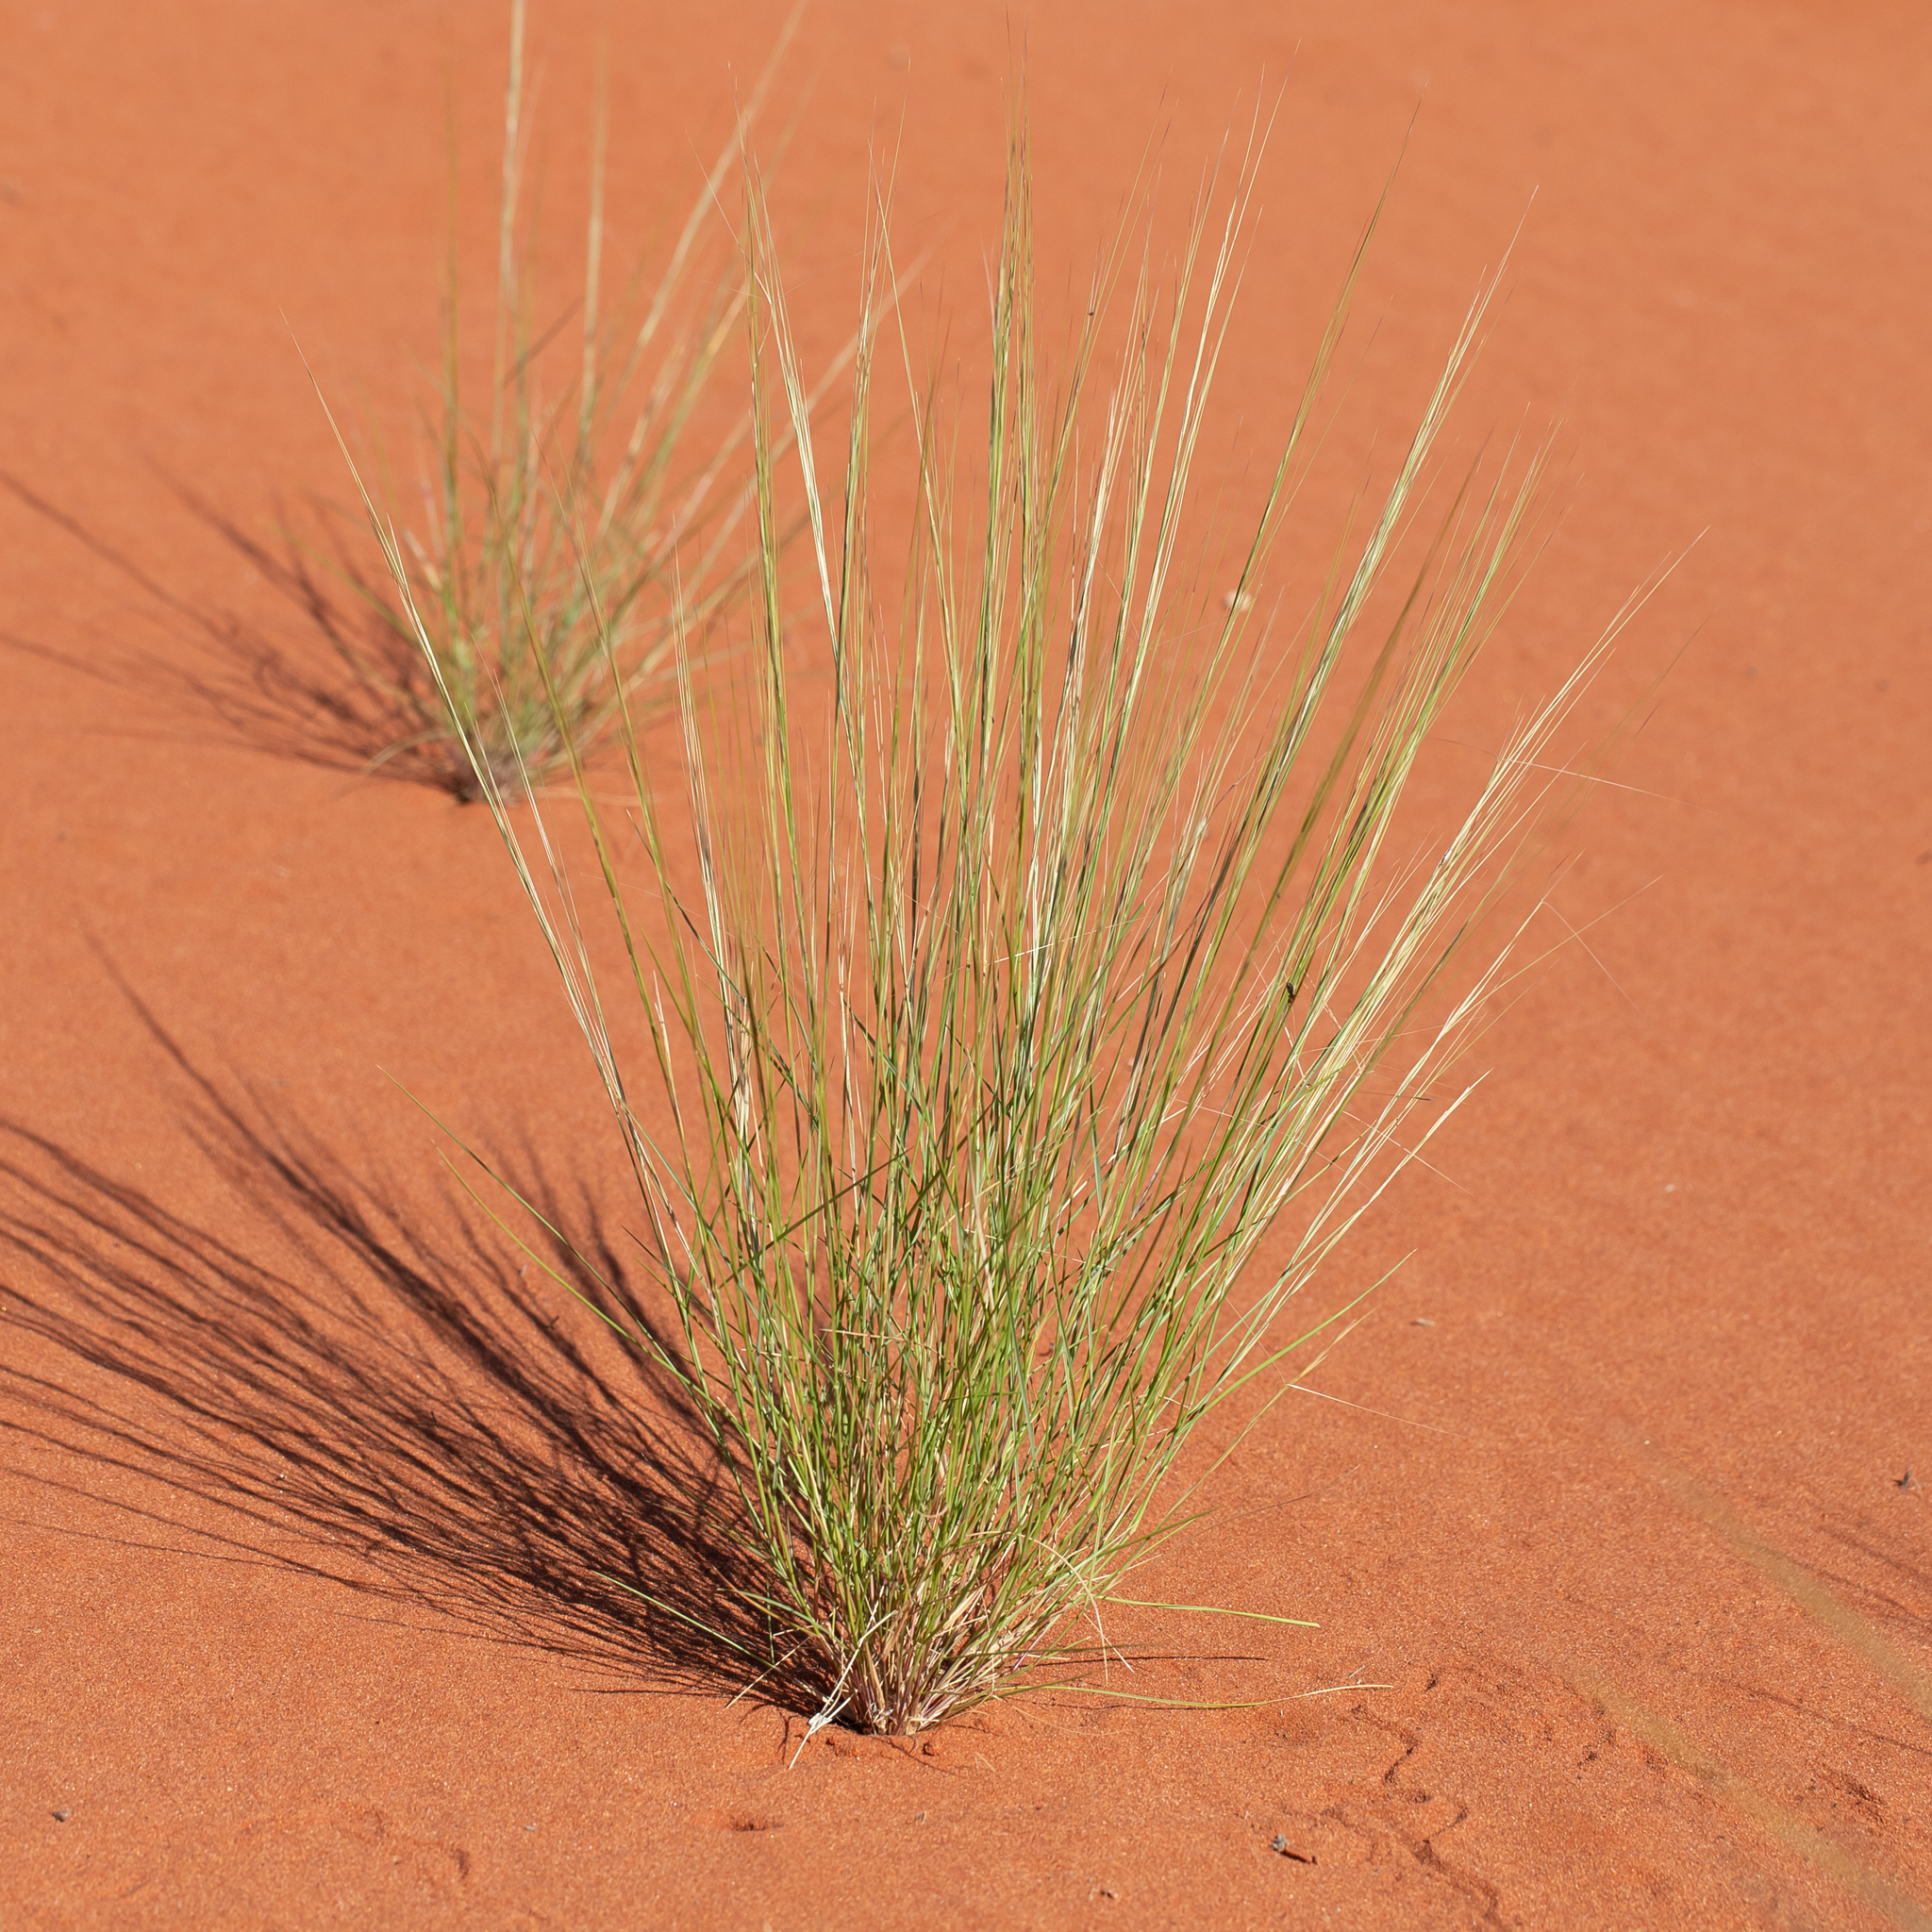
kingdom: Plantae
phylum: Tracheophyta
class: Liliopsida
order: Poales
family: Poaceae
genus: Aristida
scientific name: Aristida holathera
